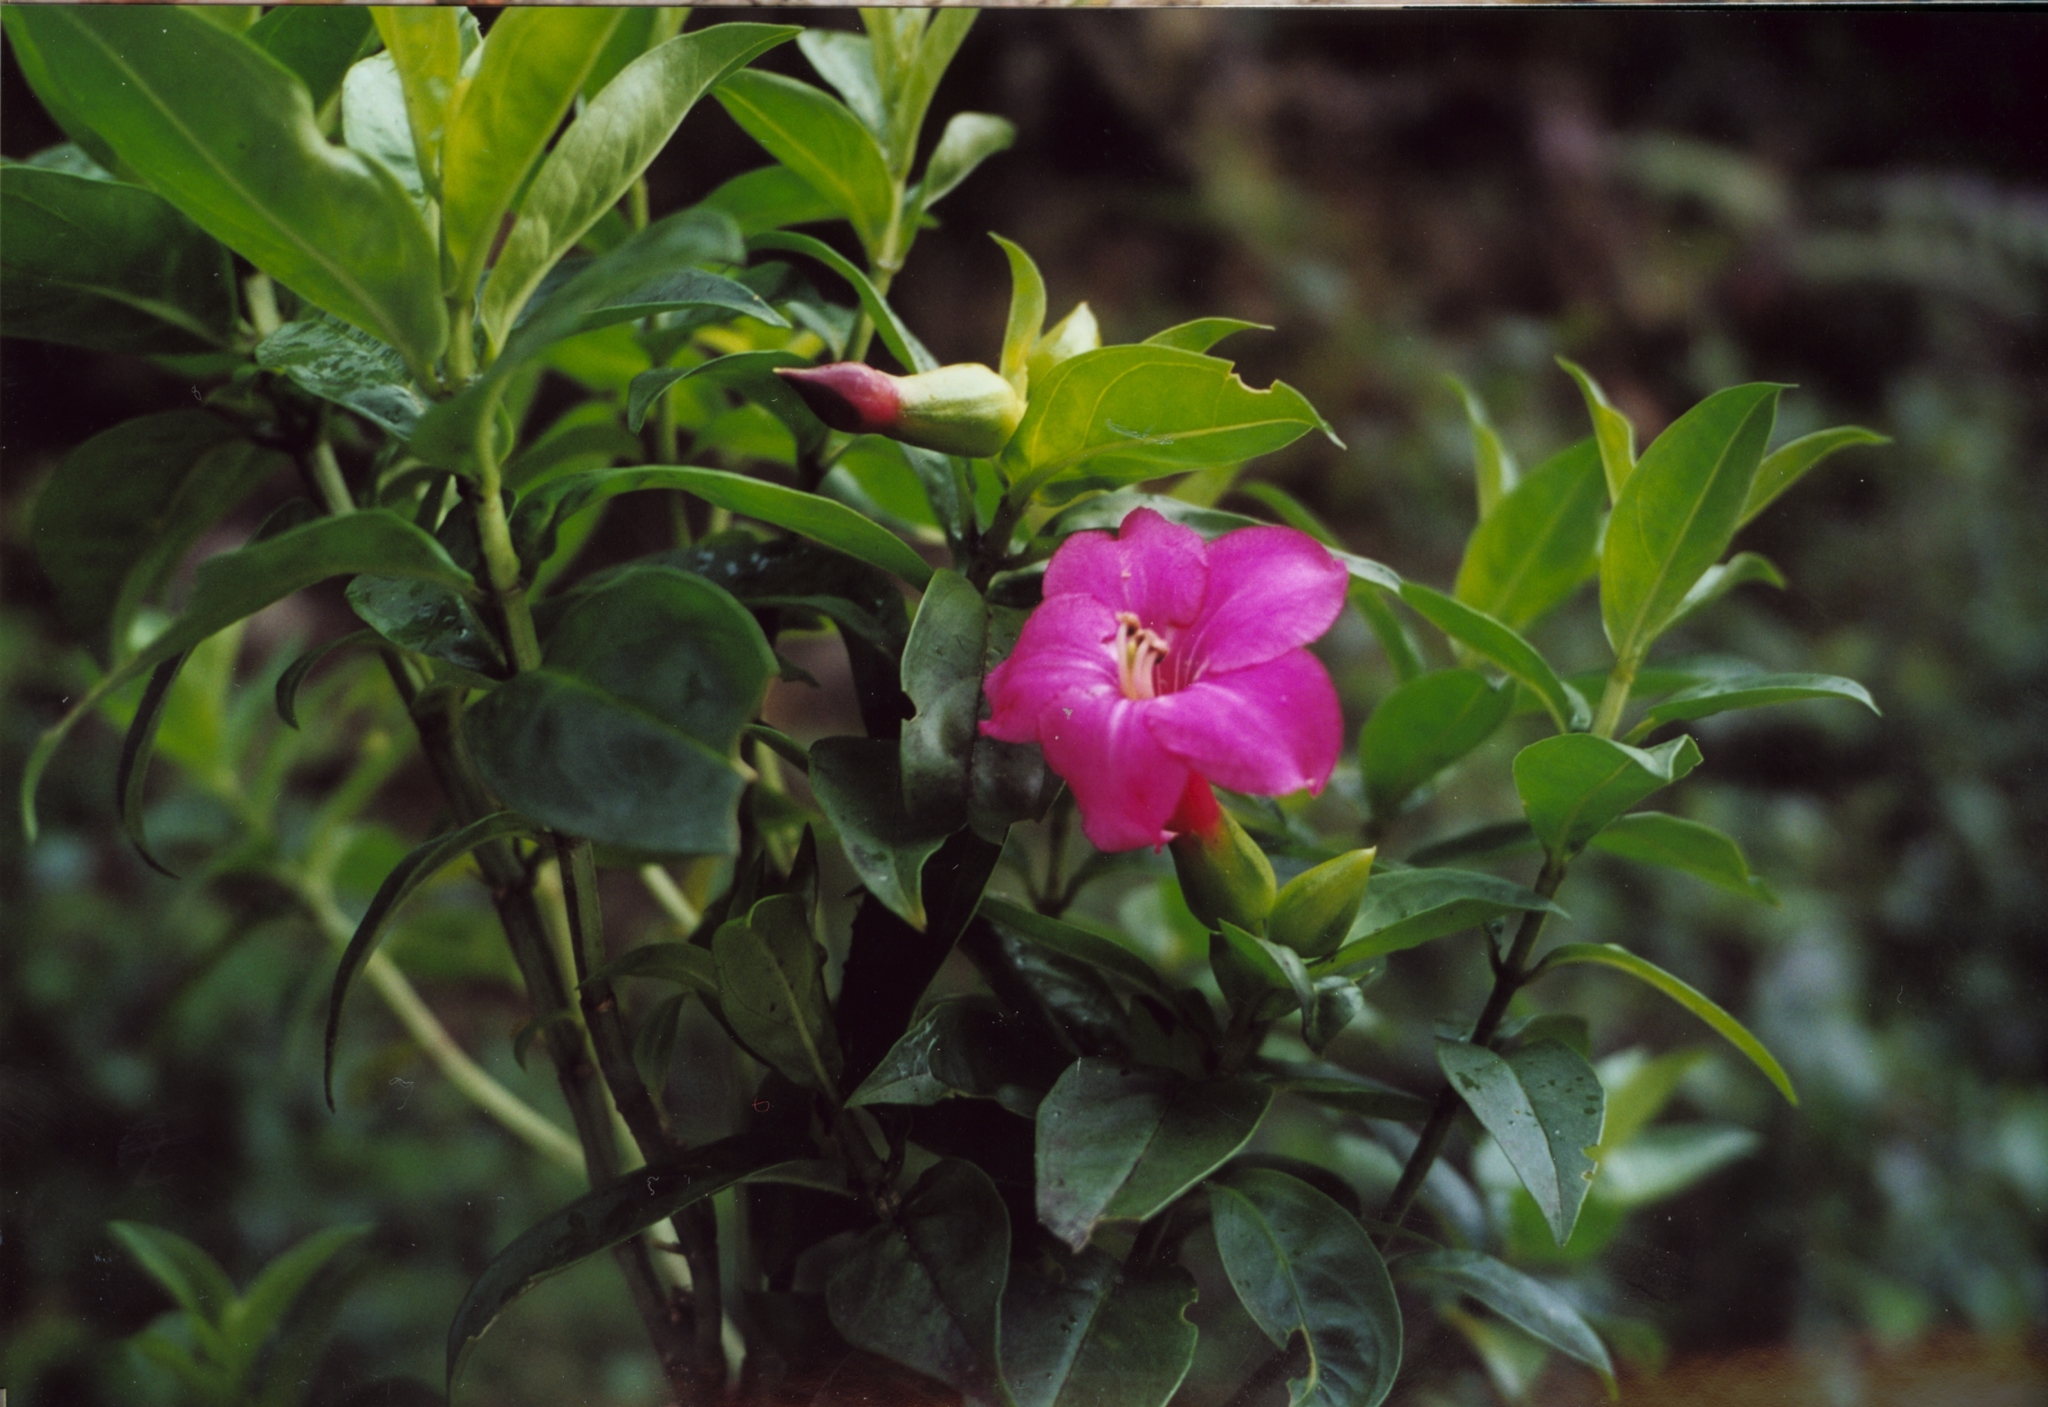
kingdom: Plantae
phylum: Tracheophyta
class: Magnoliopsida
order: Gentianales
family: Gentianaceae
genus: Symbolanthus
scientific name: Symbolanthus mathewsii
